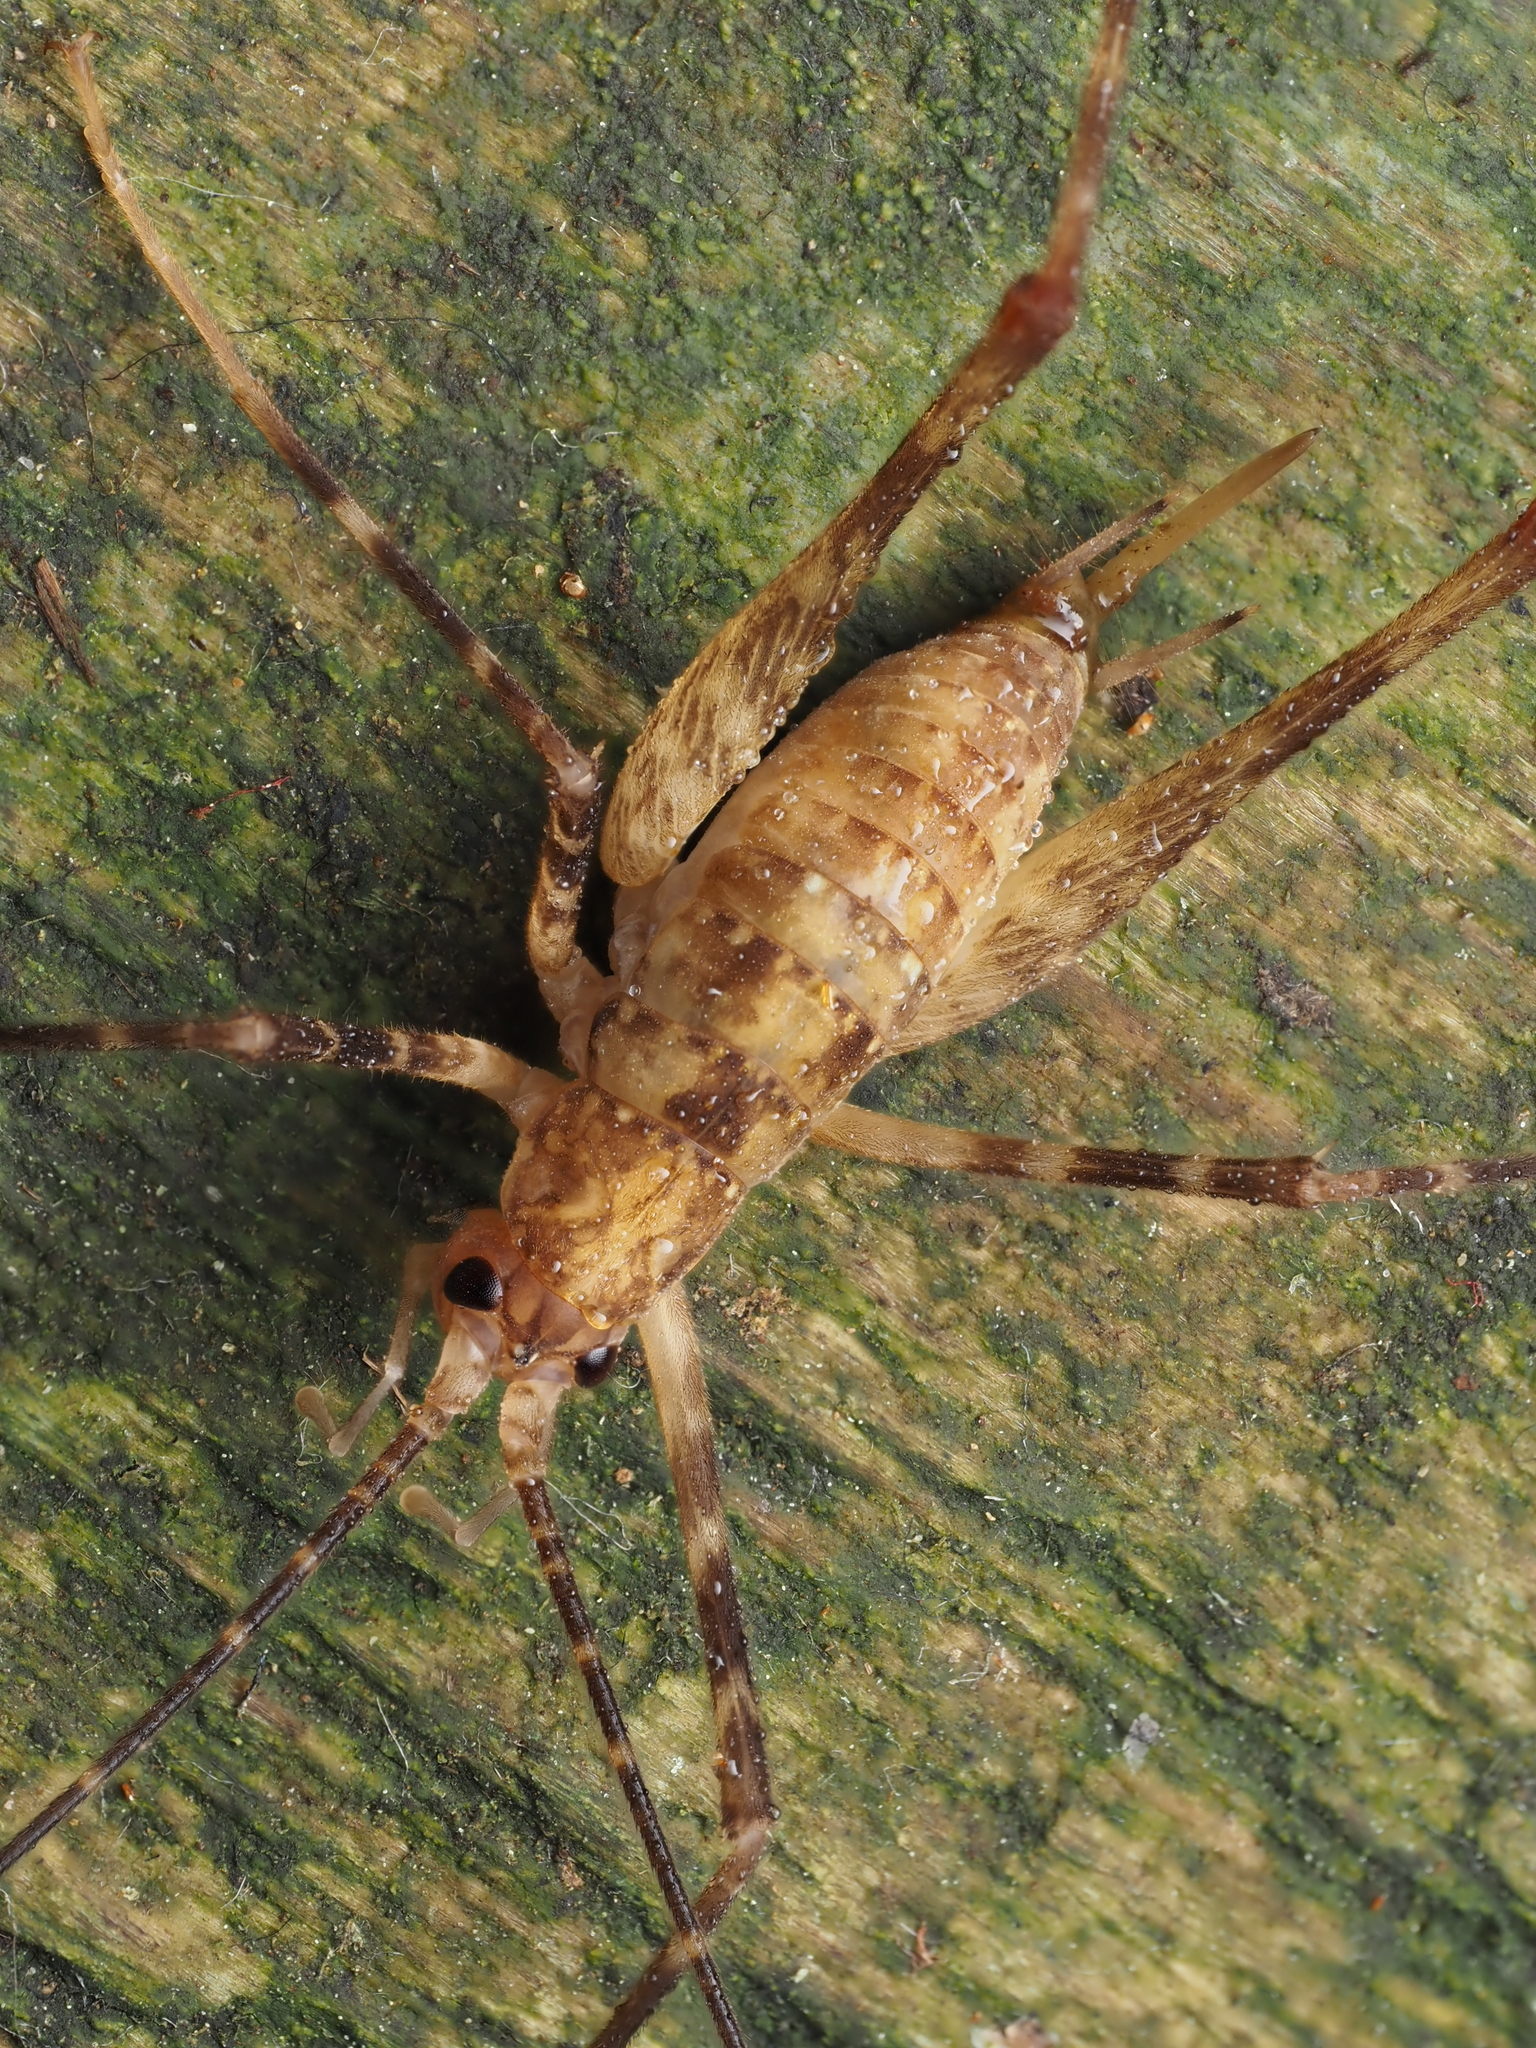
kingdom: Animalia
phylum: Arthropoda
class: Insecta
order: Orthoptera
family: Rhaphidophoridae
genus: Pallidoplectron
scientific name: Pallidoplectron turneri
